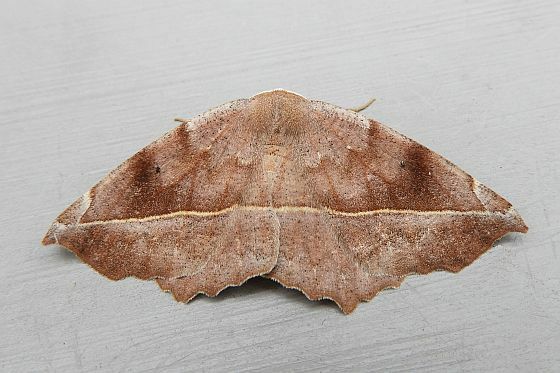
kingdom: Animalia
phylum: Arthropoda
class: Insecta
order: Lepidoptera
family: Geometridae
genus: Eutrapela
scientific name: Eutrapela clemataria
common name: Curved-toothed geometer
